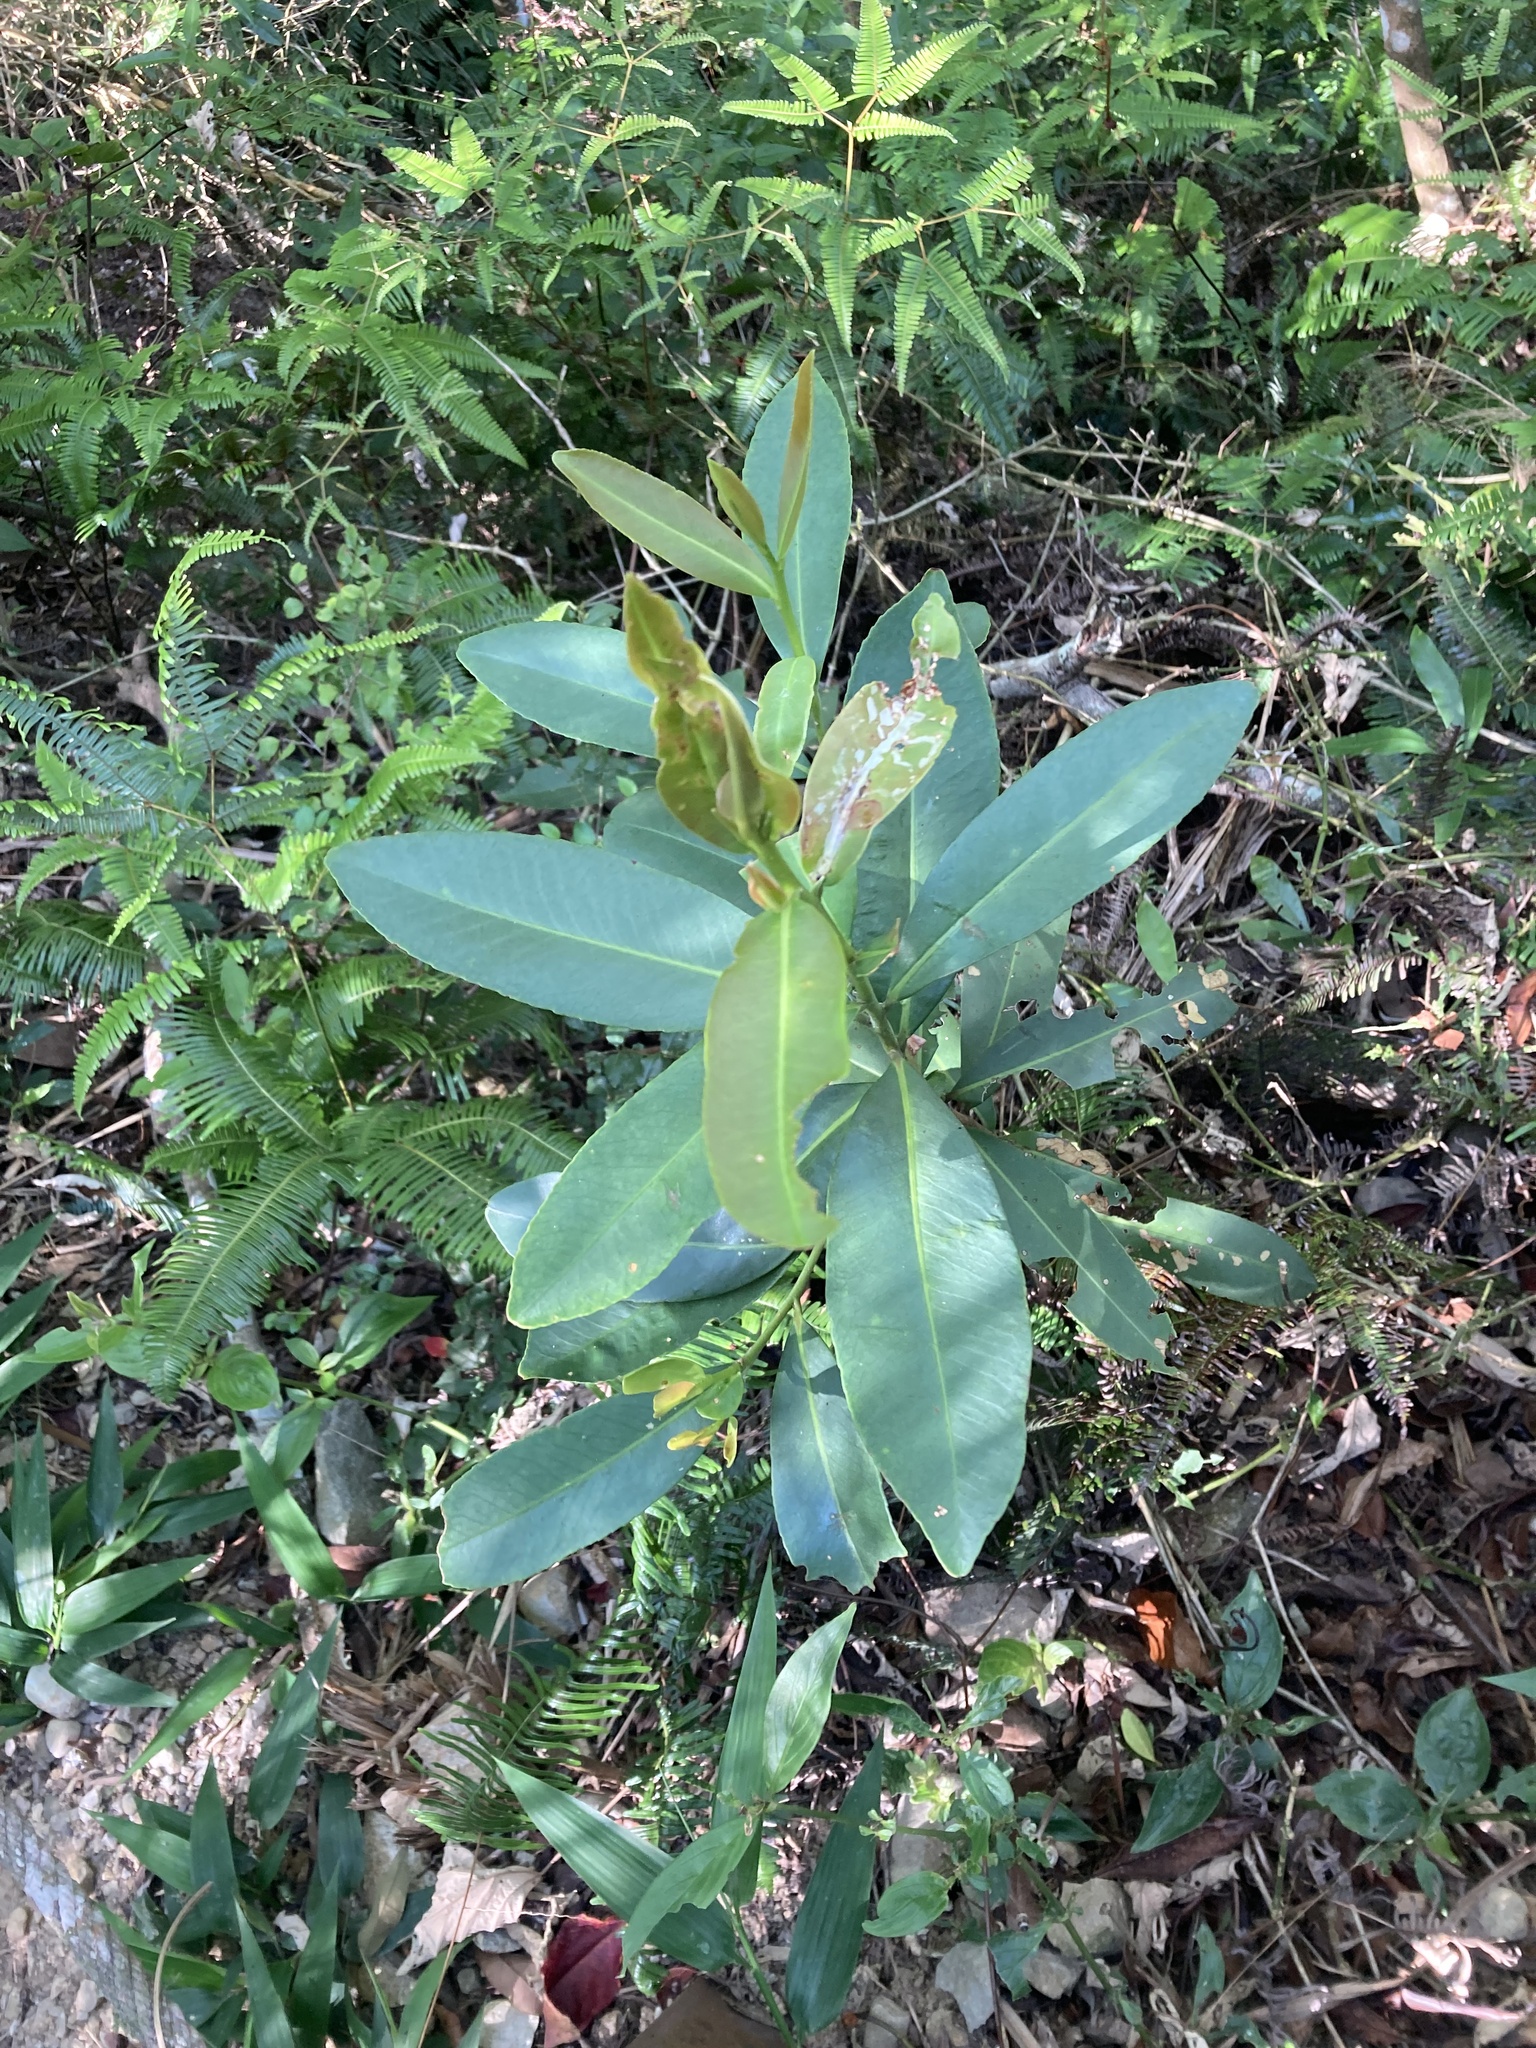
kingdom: Plantae
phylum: Tracheophyta
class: Magnoliopsida
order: Ericales
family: Theaceae
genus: Polyspora
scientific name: Polyspora axillaris
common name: Fried egg tree
